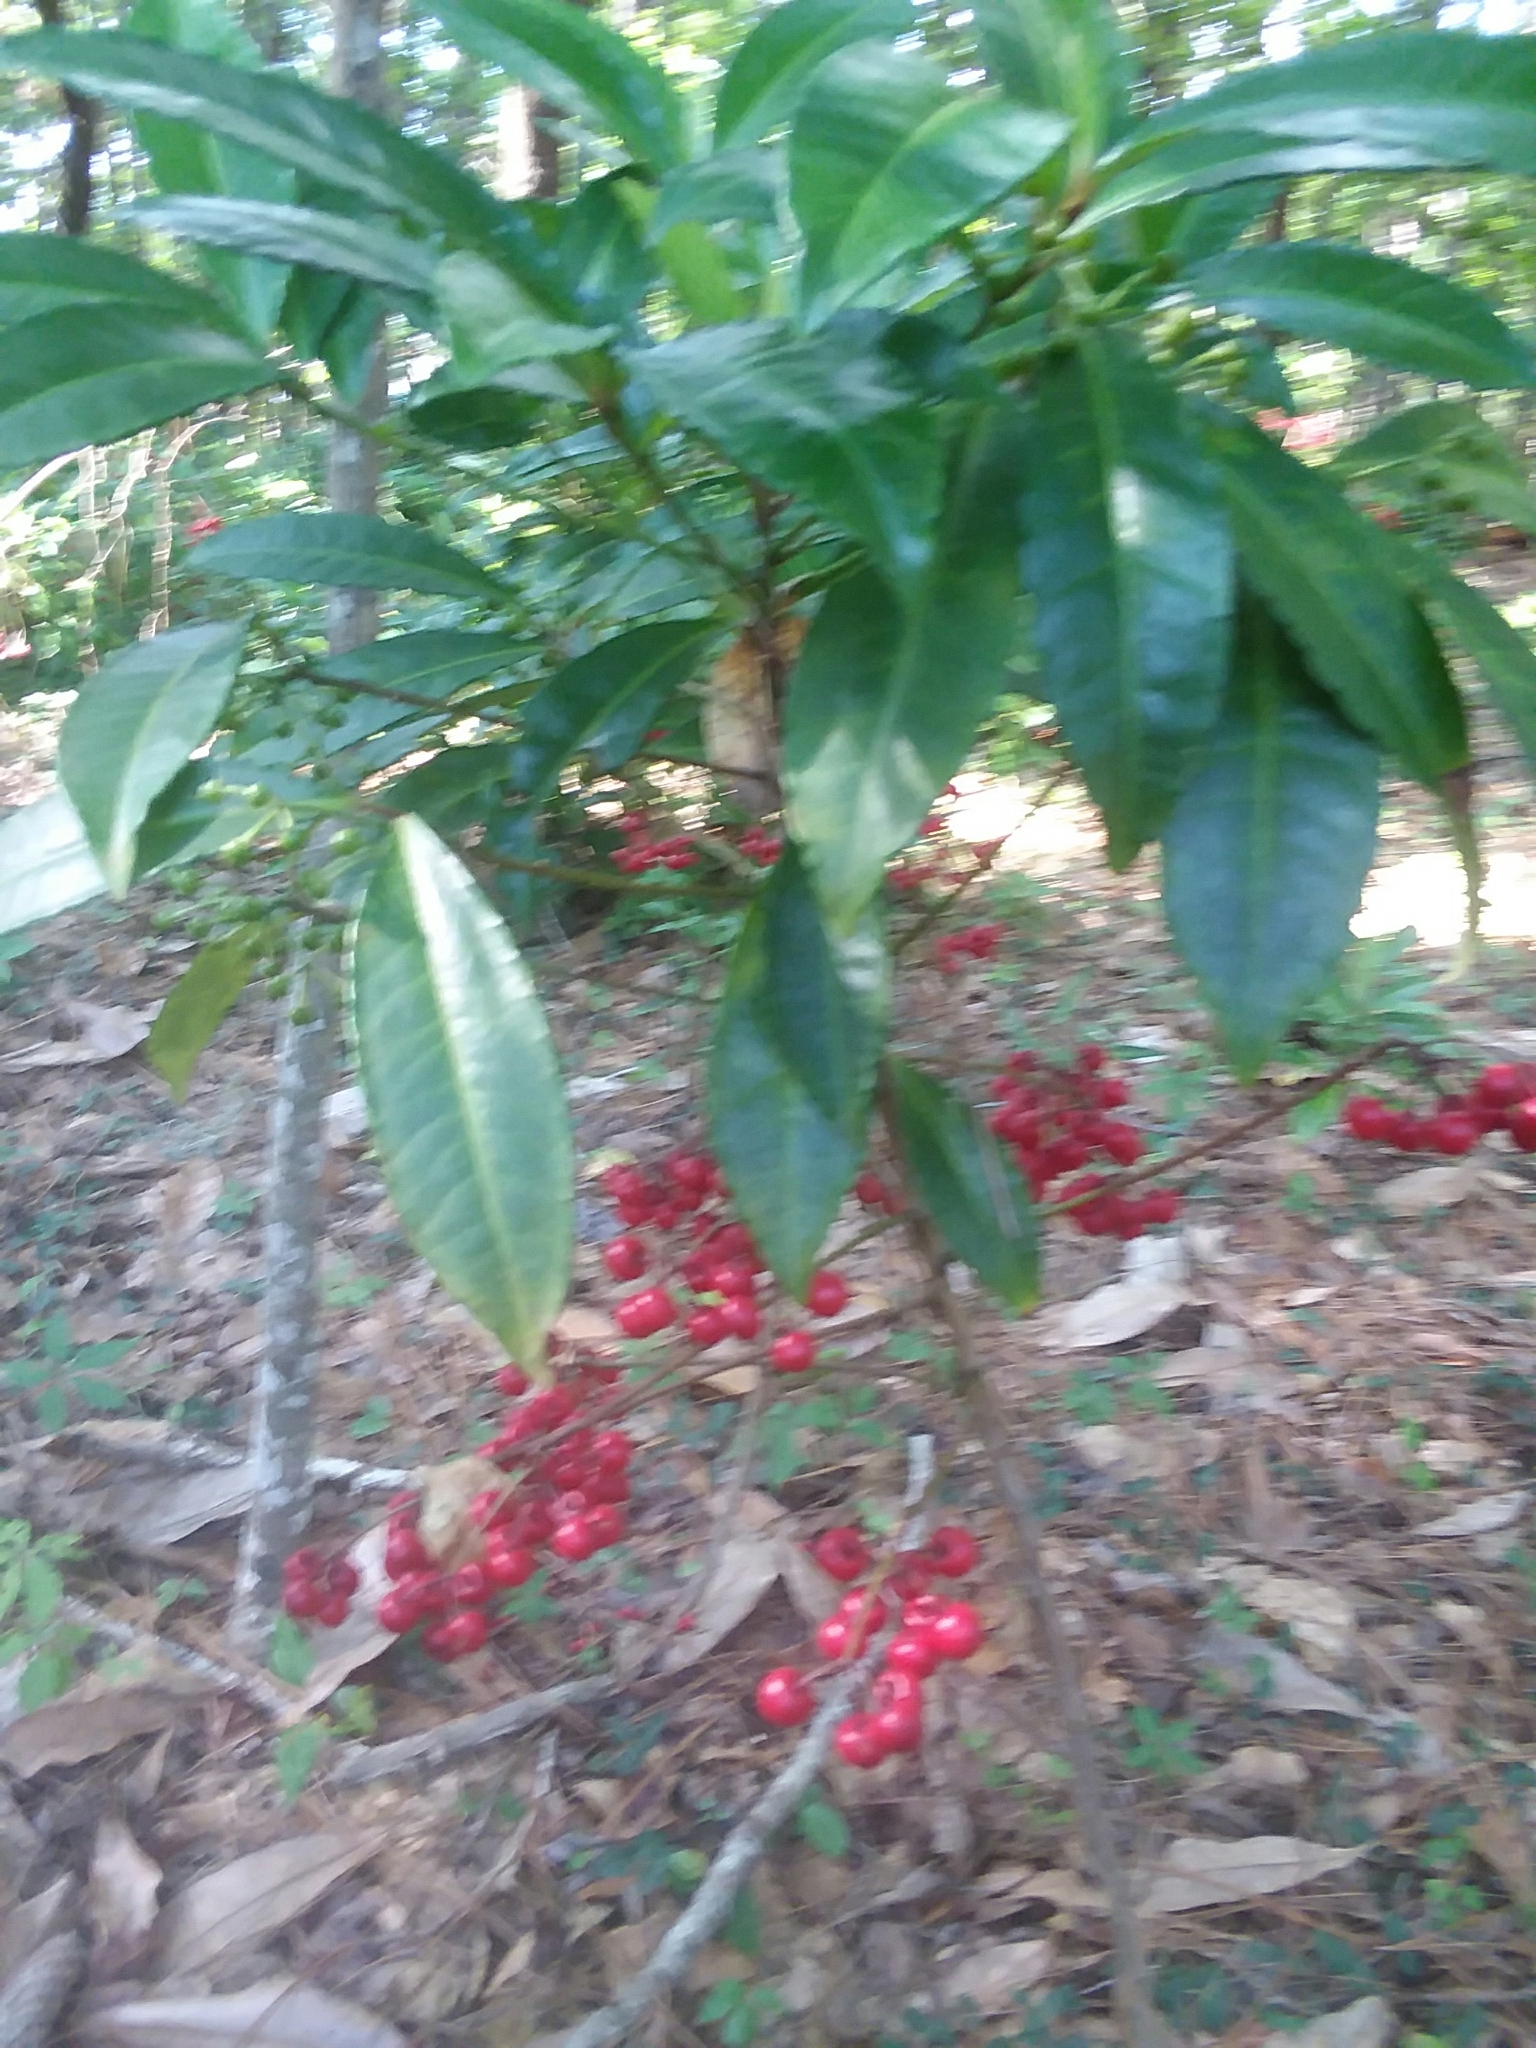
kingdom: Plantae
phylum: Tracheophyta
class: Magnoliopsida
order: Ericales
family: Primulaceae
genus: Ardisia
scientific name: Ardisia crenata
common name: Hen's eyes
